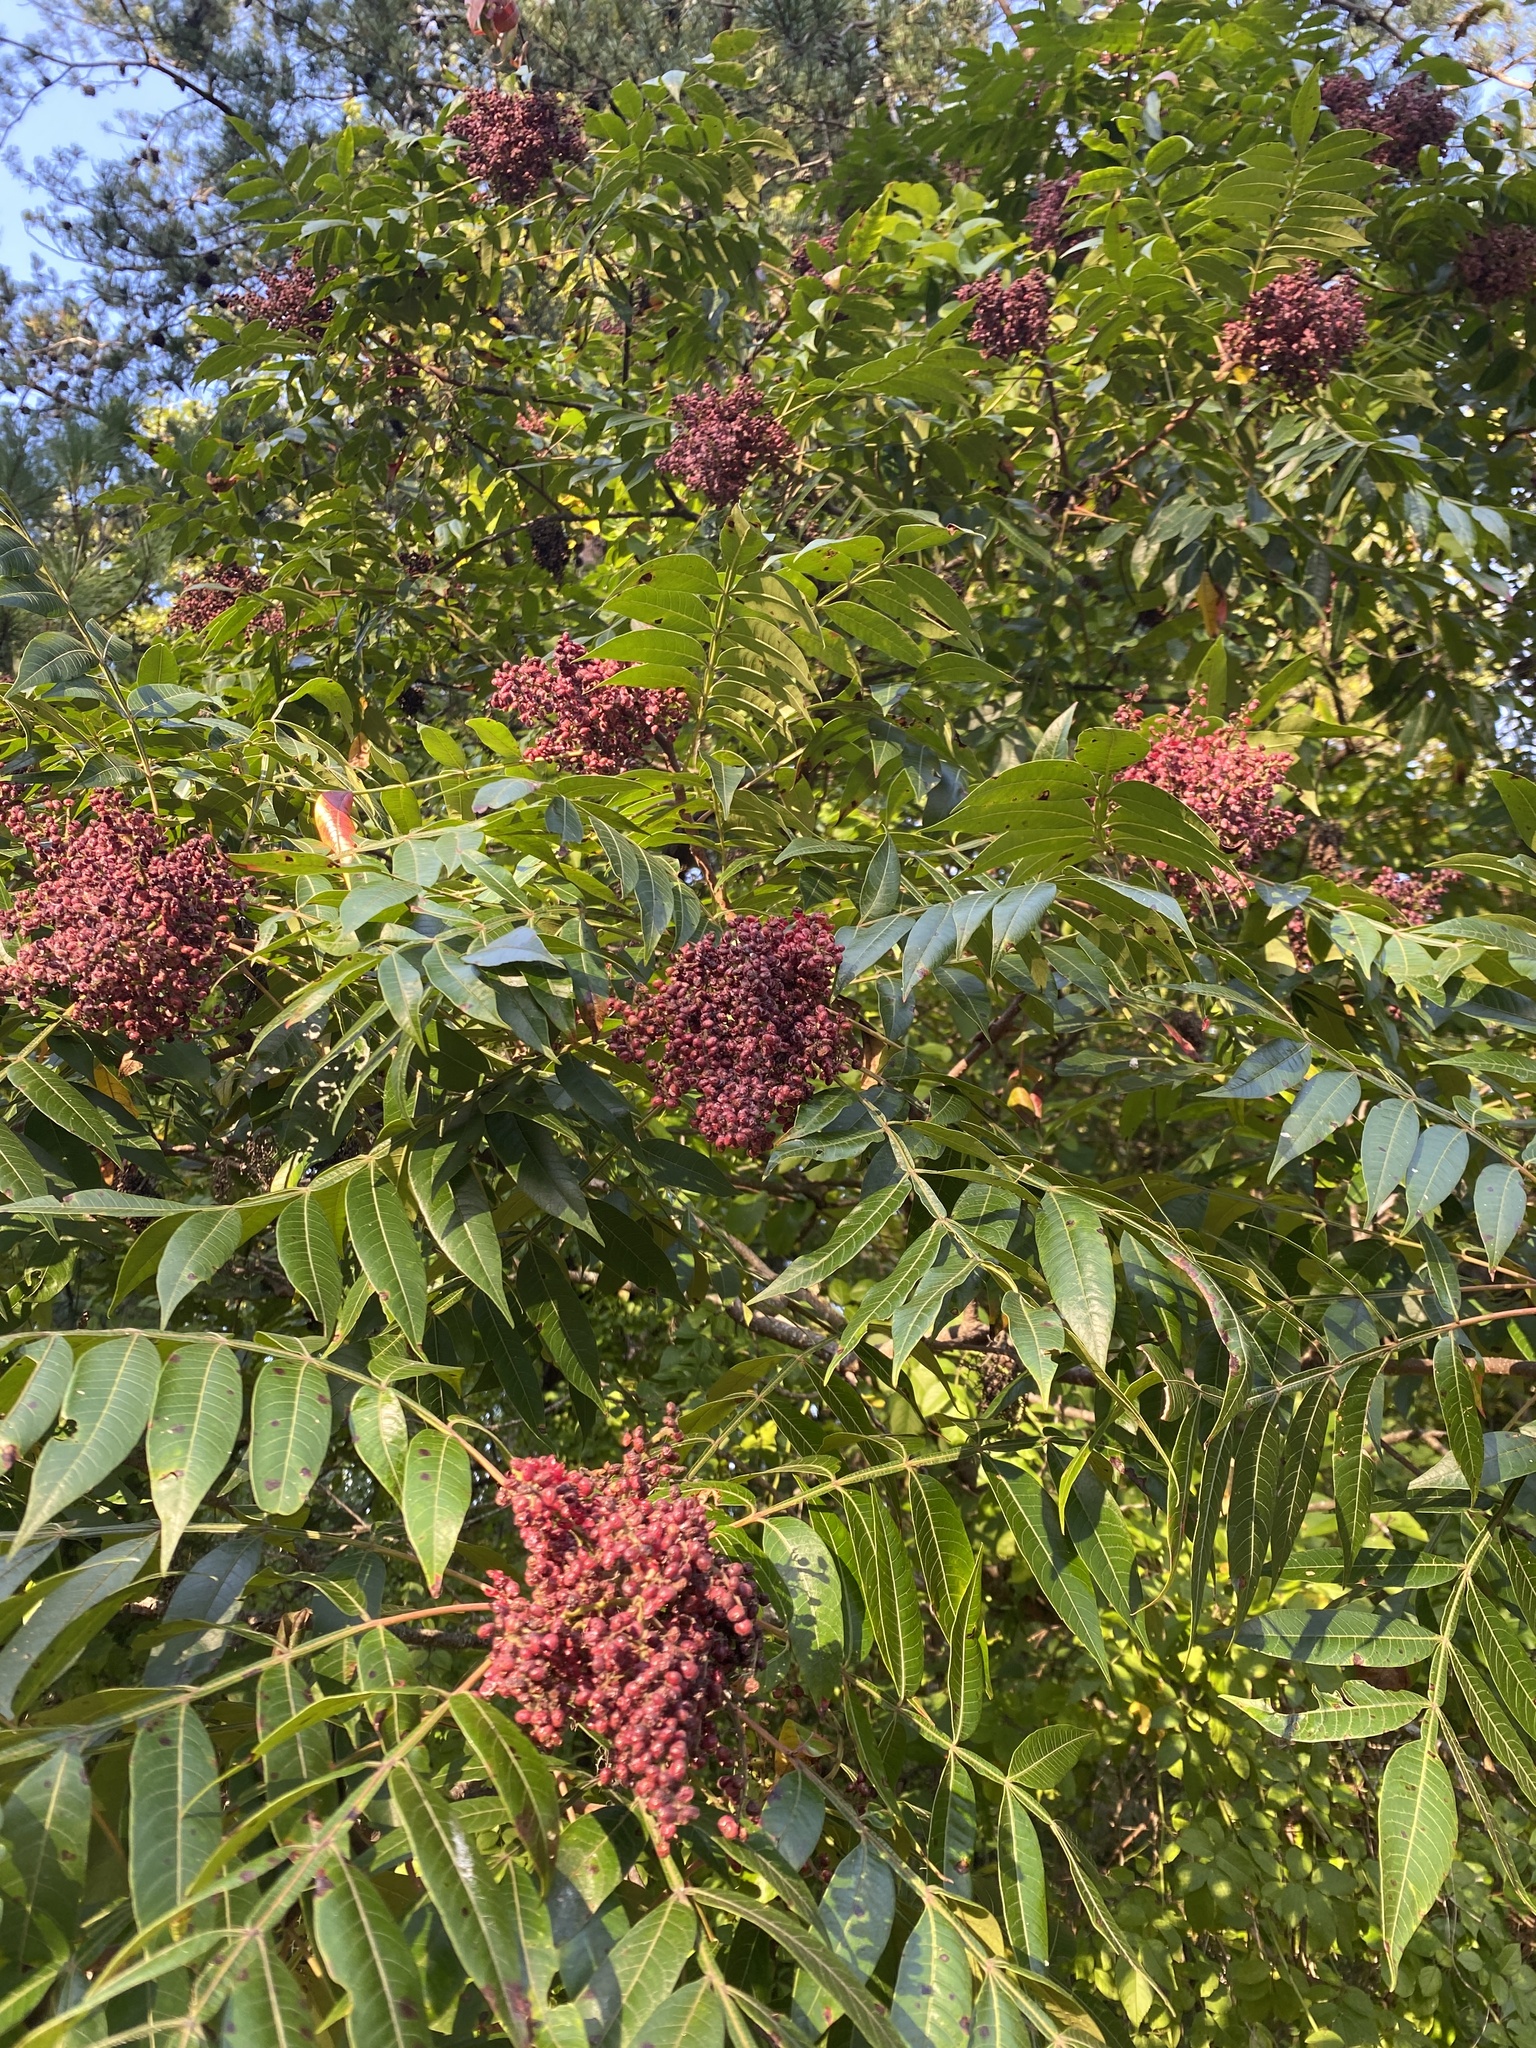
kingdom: Plantae
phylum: Tracheophyta
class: Magnoliopsida
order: Sapindales
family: Anacardiaceae
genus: Rhus
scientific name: Rhus copallina
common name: Shining sumac
